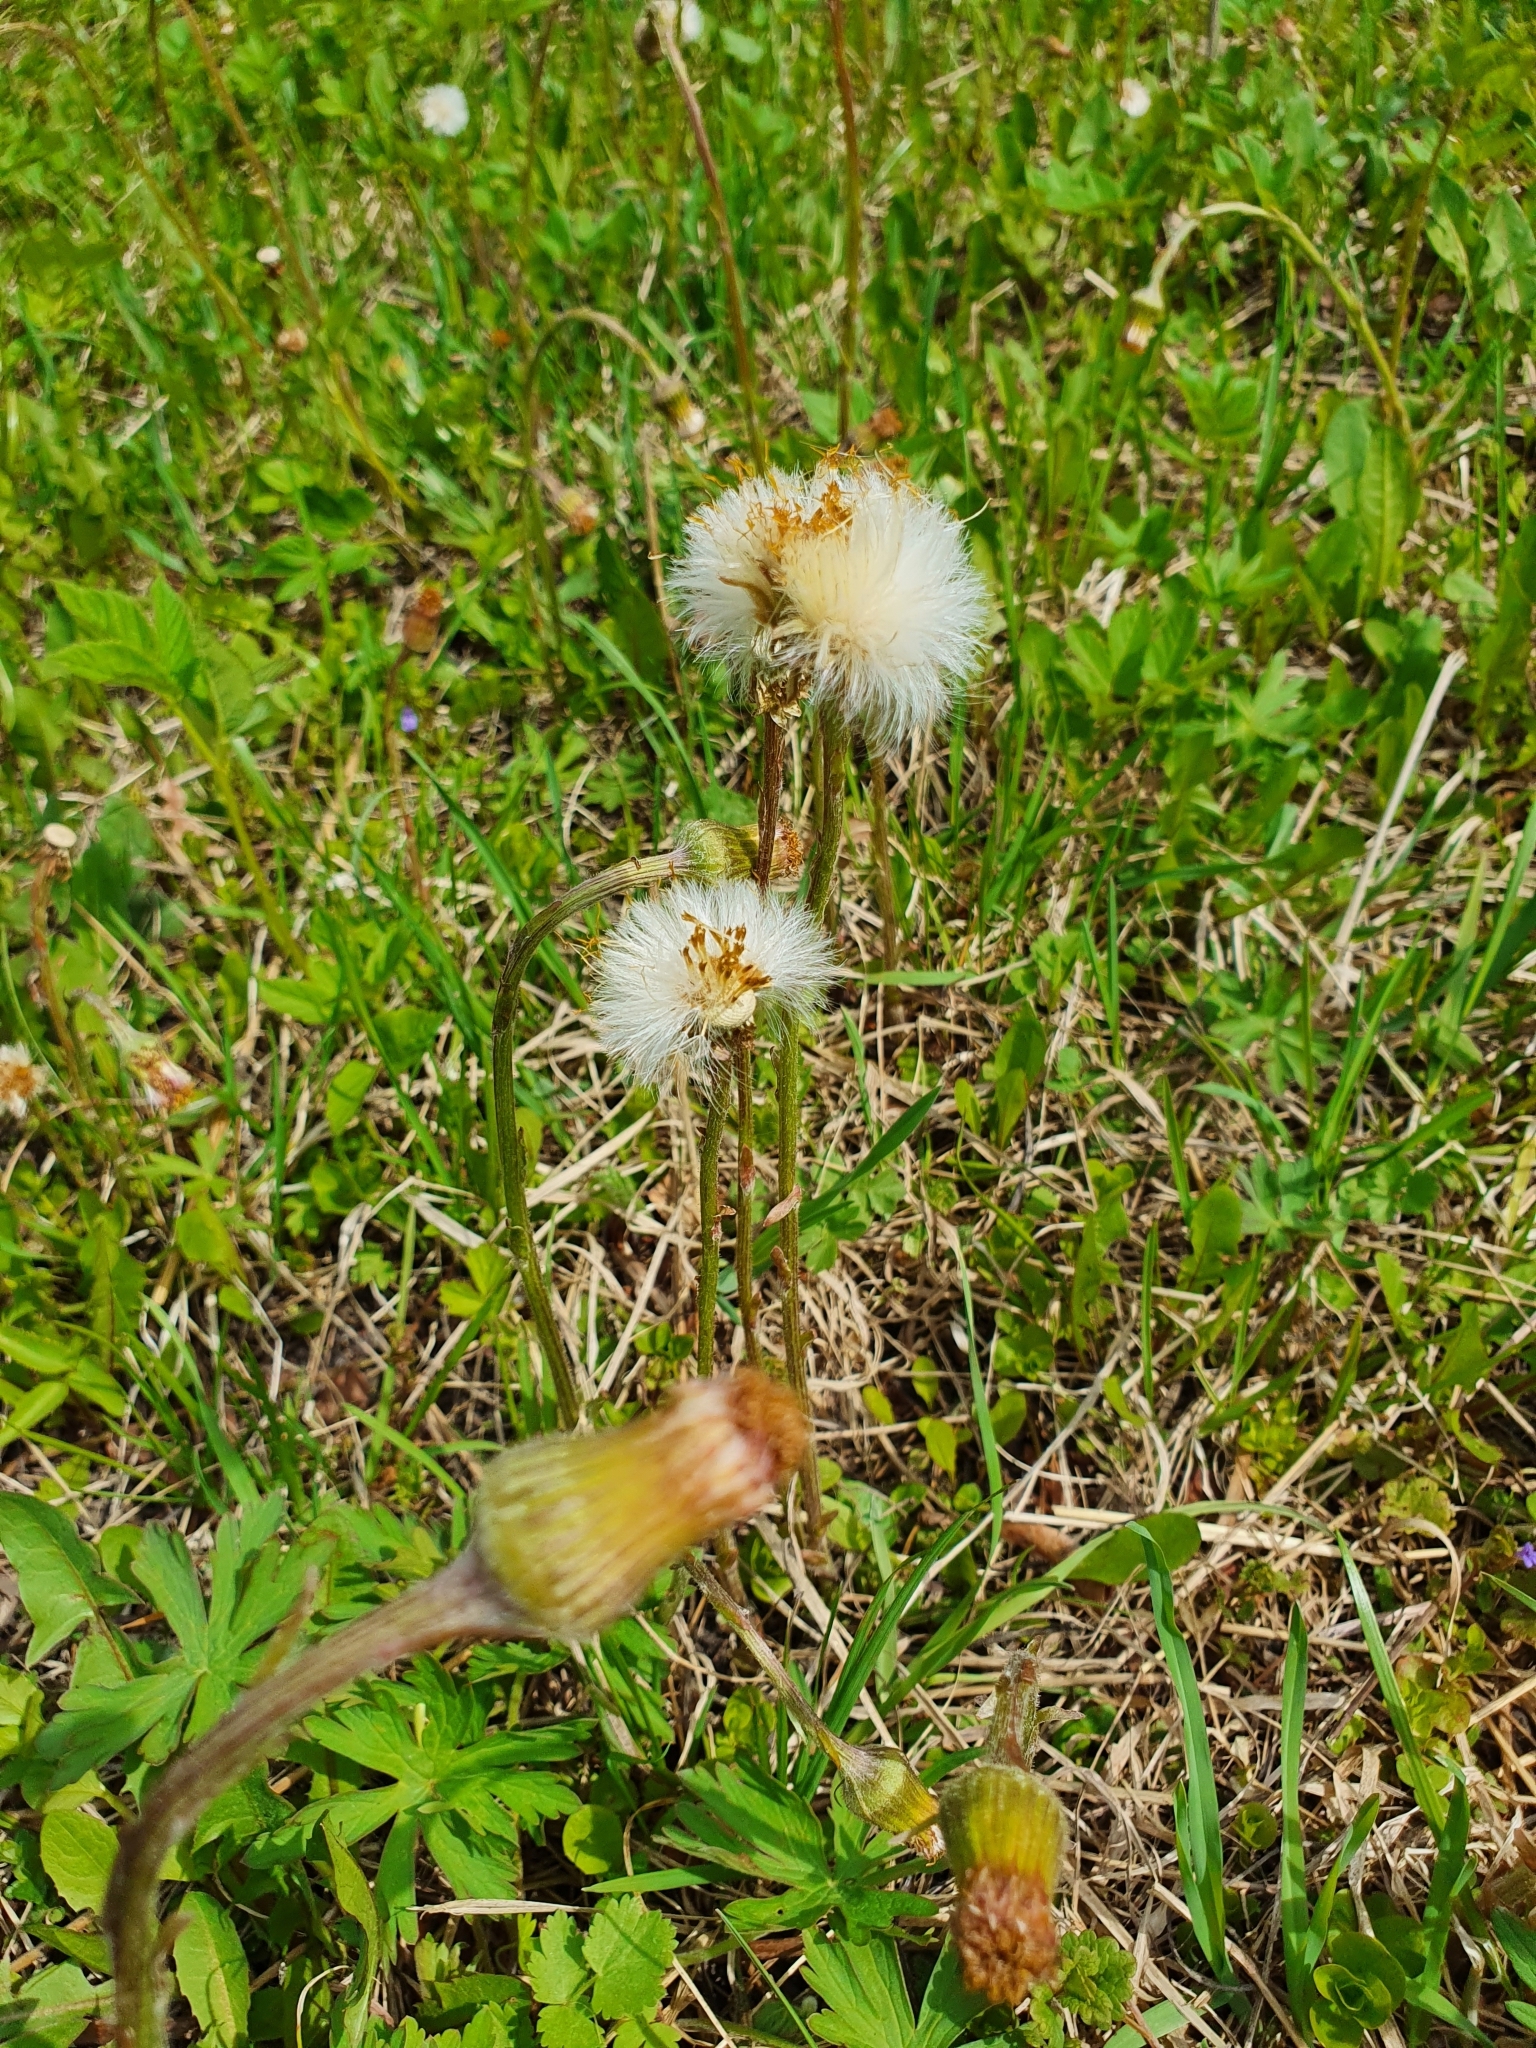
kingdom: Plantae
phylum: Tracheophyta
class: Magnoliopsida
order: Asterales
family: Asteraceae
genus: Tussilago
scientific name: Tussilago farfara
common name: Coltsfoot
